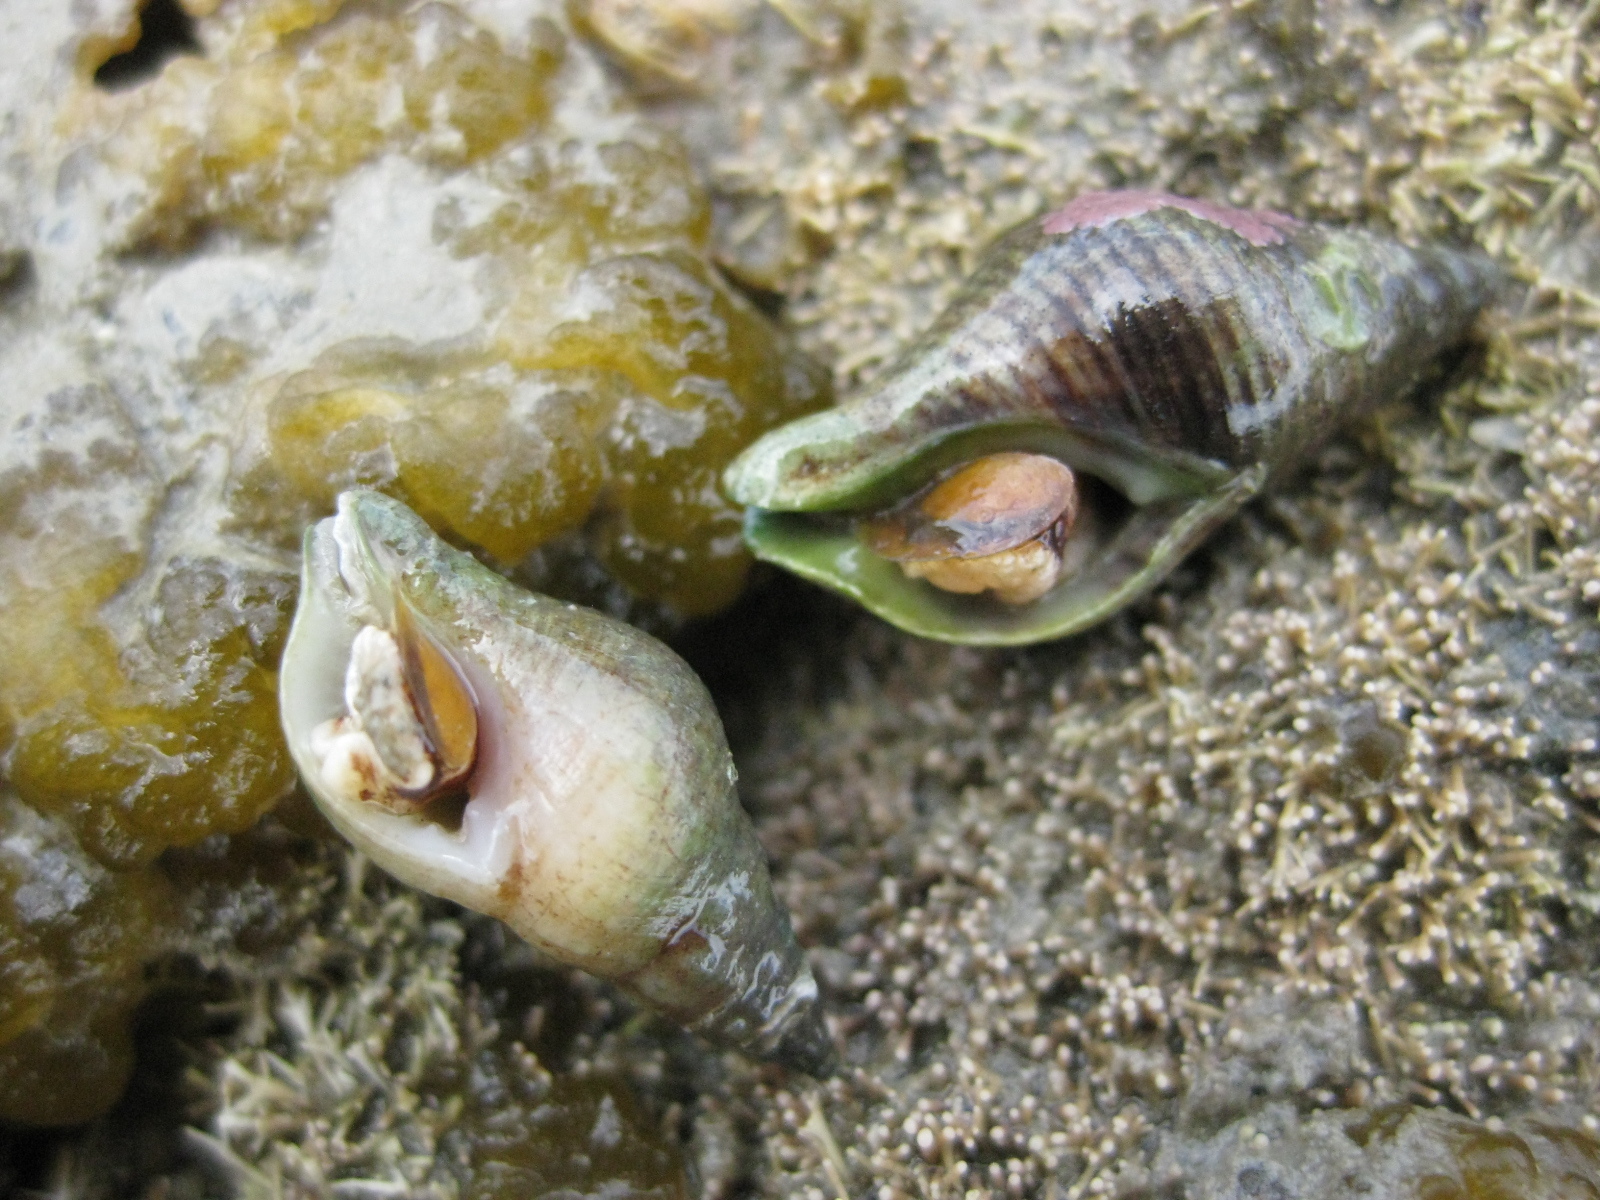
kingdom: Animalia
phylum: Mollusca
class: Gastropoda
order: Neogastropoda
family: Tudiclidae
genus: Buccinulum
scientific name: Buccinulum linea
